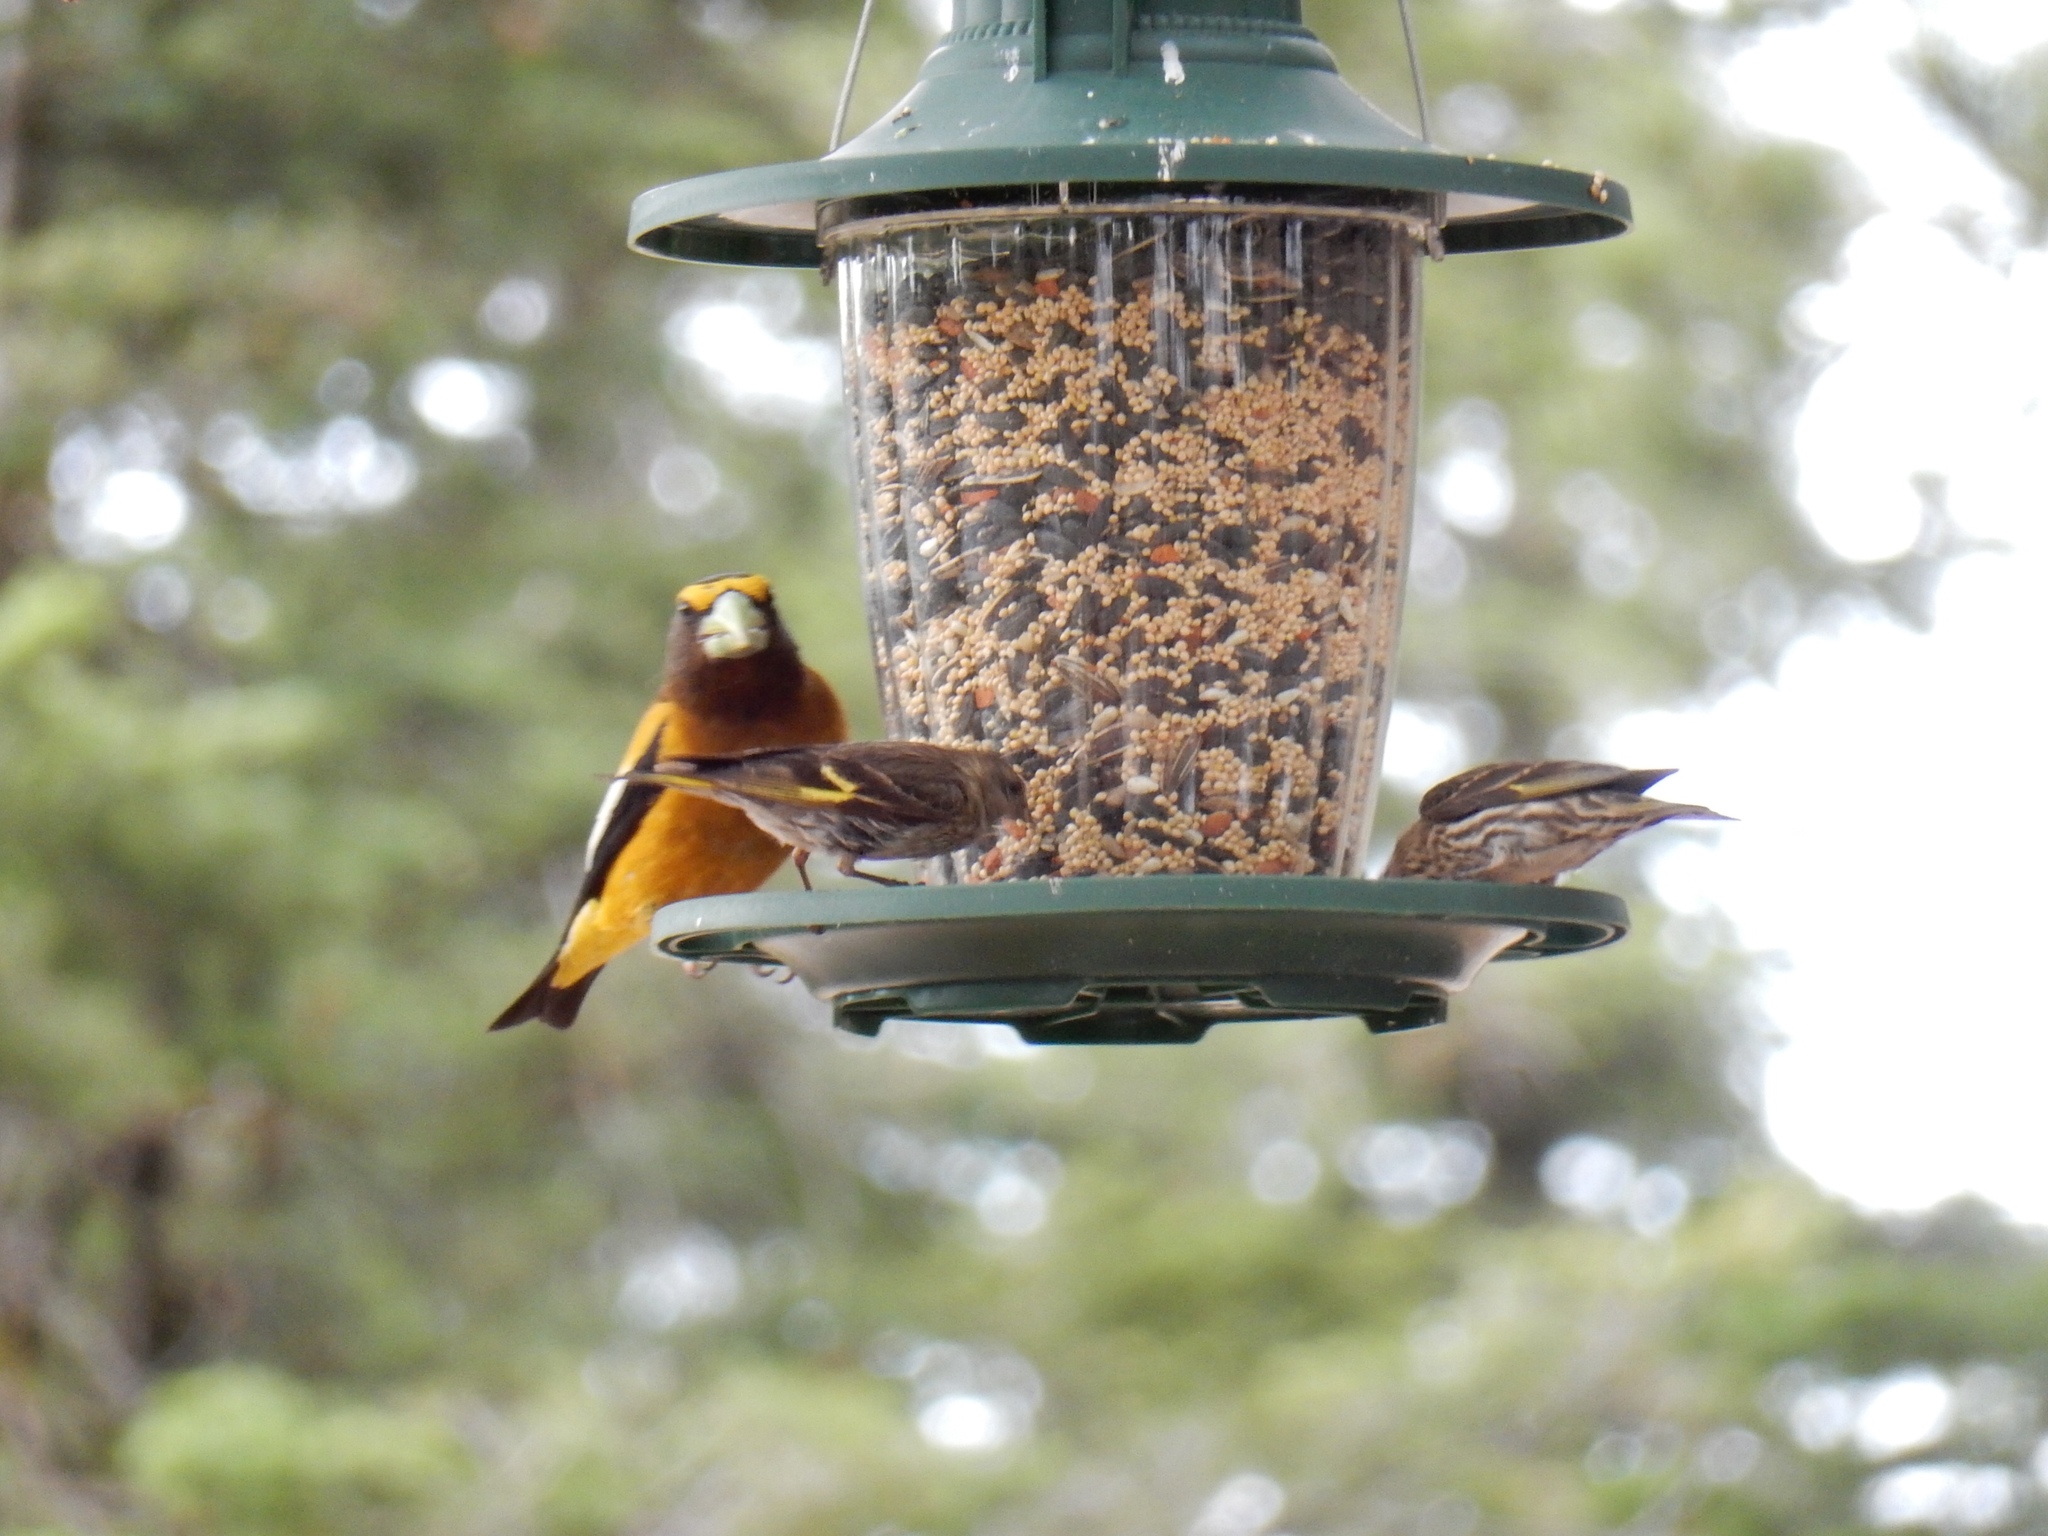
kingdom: Animalia
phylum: Chordata
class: Aves
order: Passeriformes
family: Fringillidae
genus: Hesperiphona
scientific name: Hesperiphona vespertina
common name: Evening grosbeak
